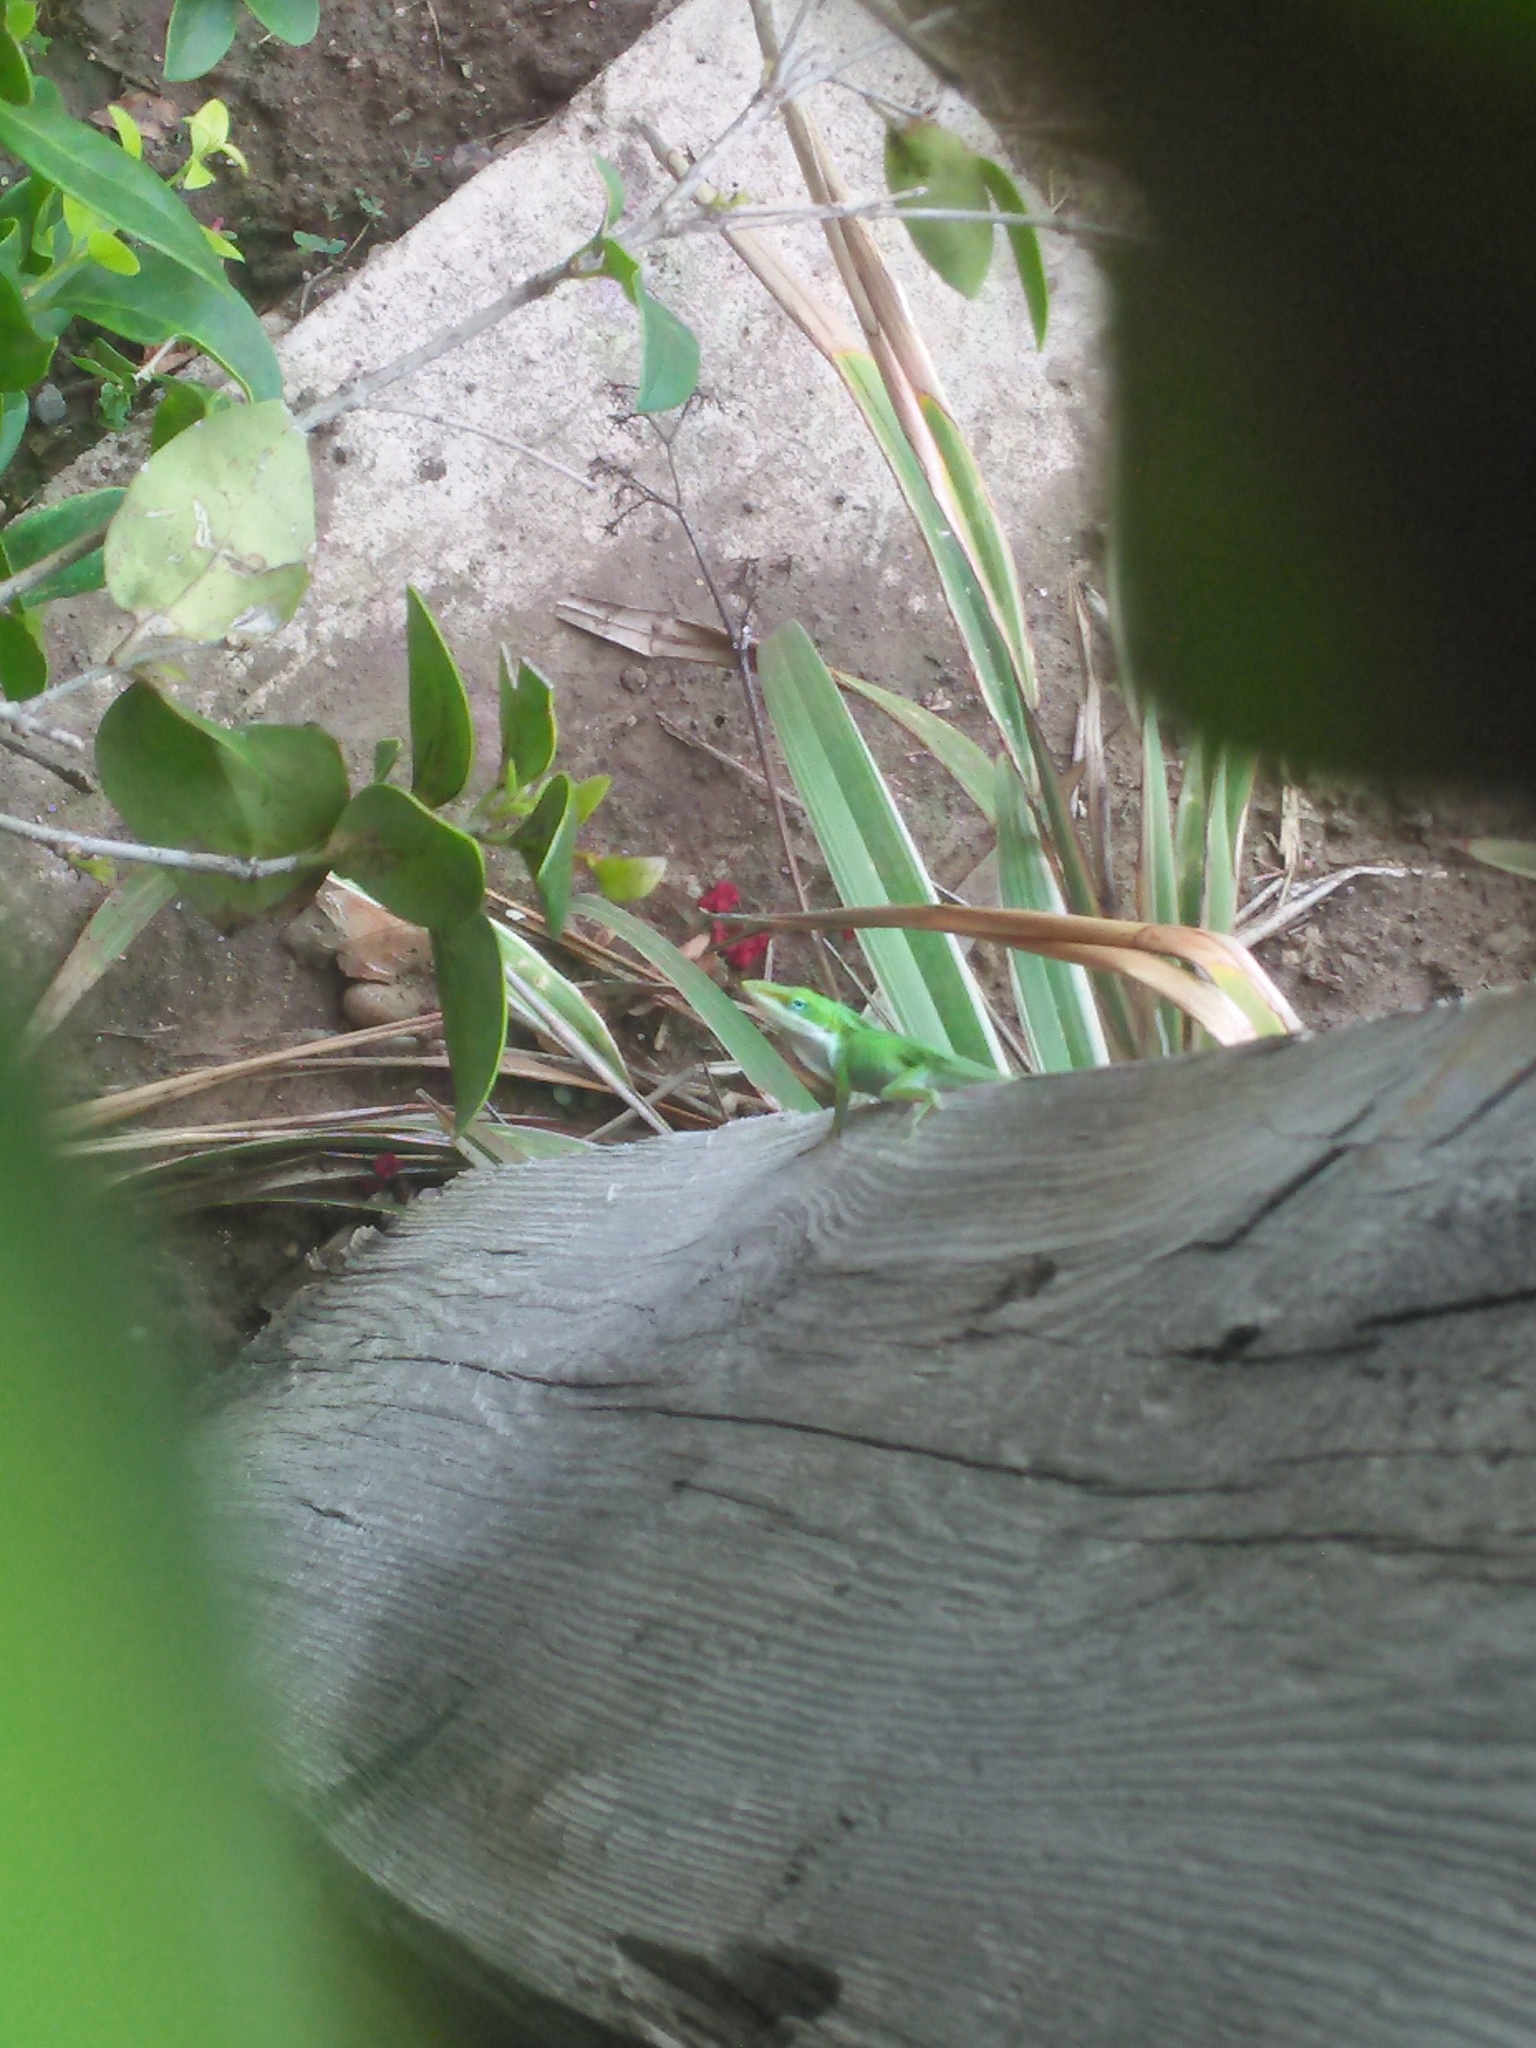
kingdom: Animalia
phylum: Chordata
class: Squamata
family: Dactyloidae
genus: Anolis
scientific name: Anolis carolinensis
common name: Green anole
